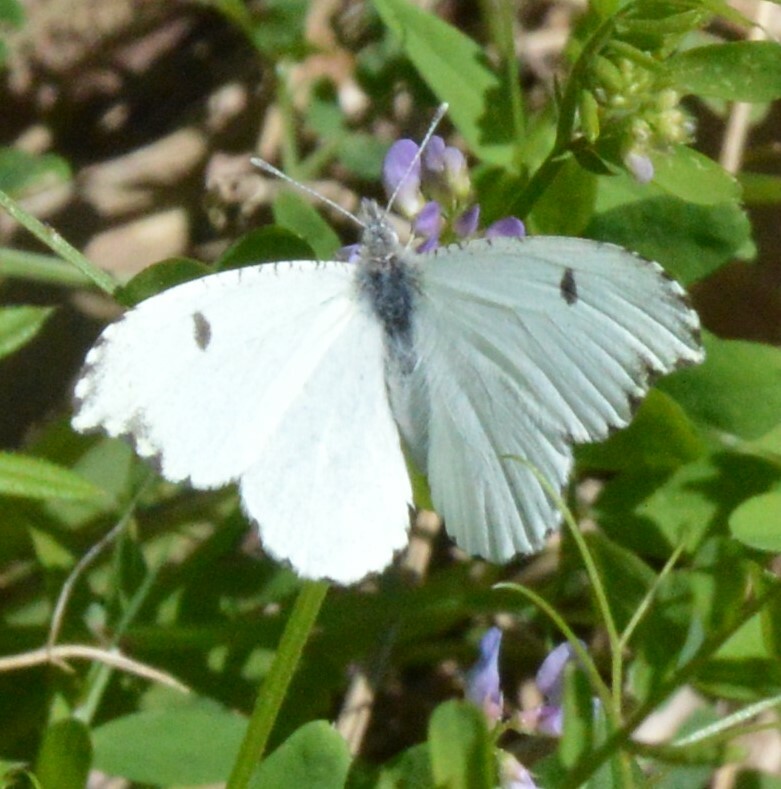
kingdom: Animalia
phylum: Arthropoda
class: Insecta
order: Lepidoptera
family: Pieridae
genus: Anthocharis
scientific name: Anthocharis midea
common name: Falcate orangetip
